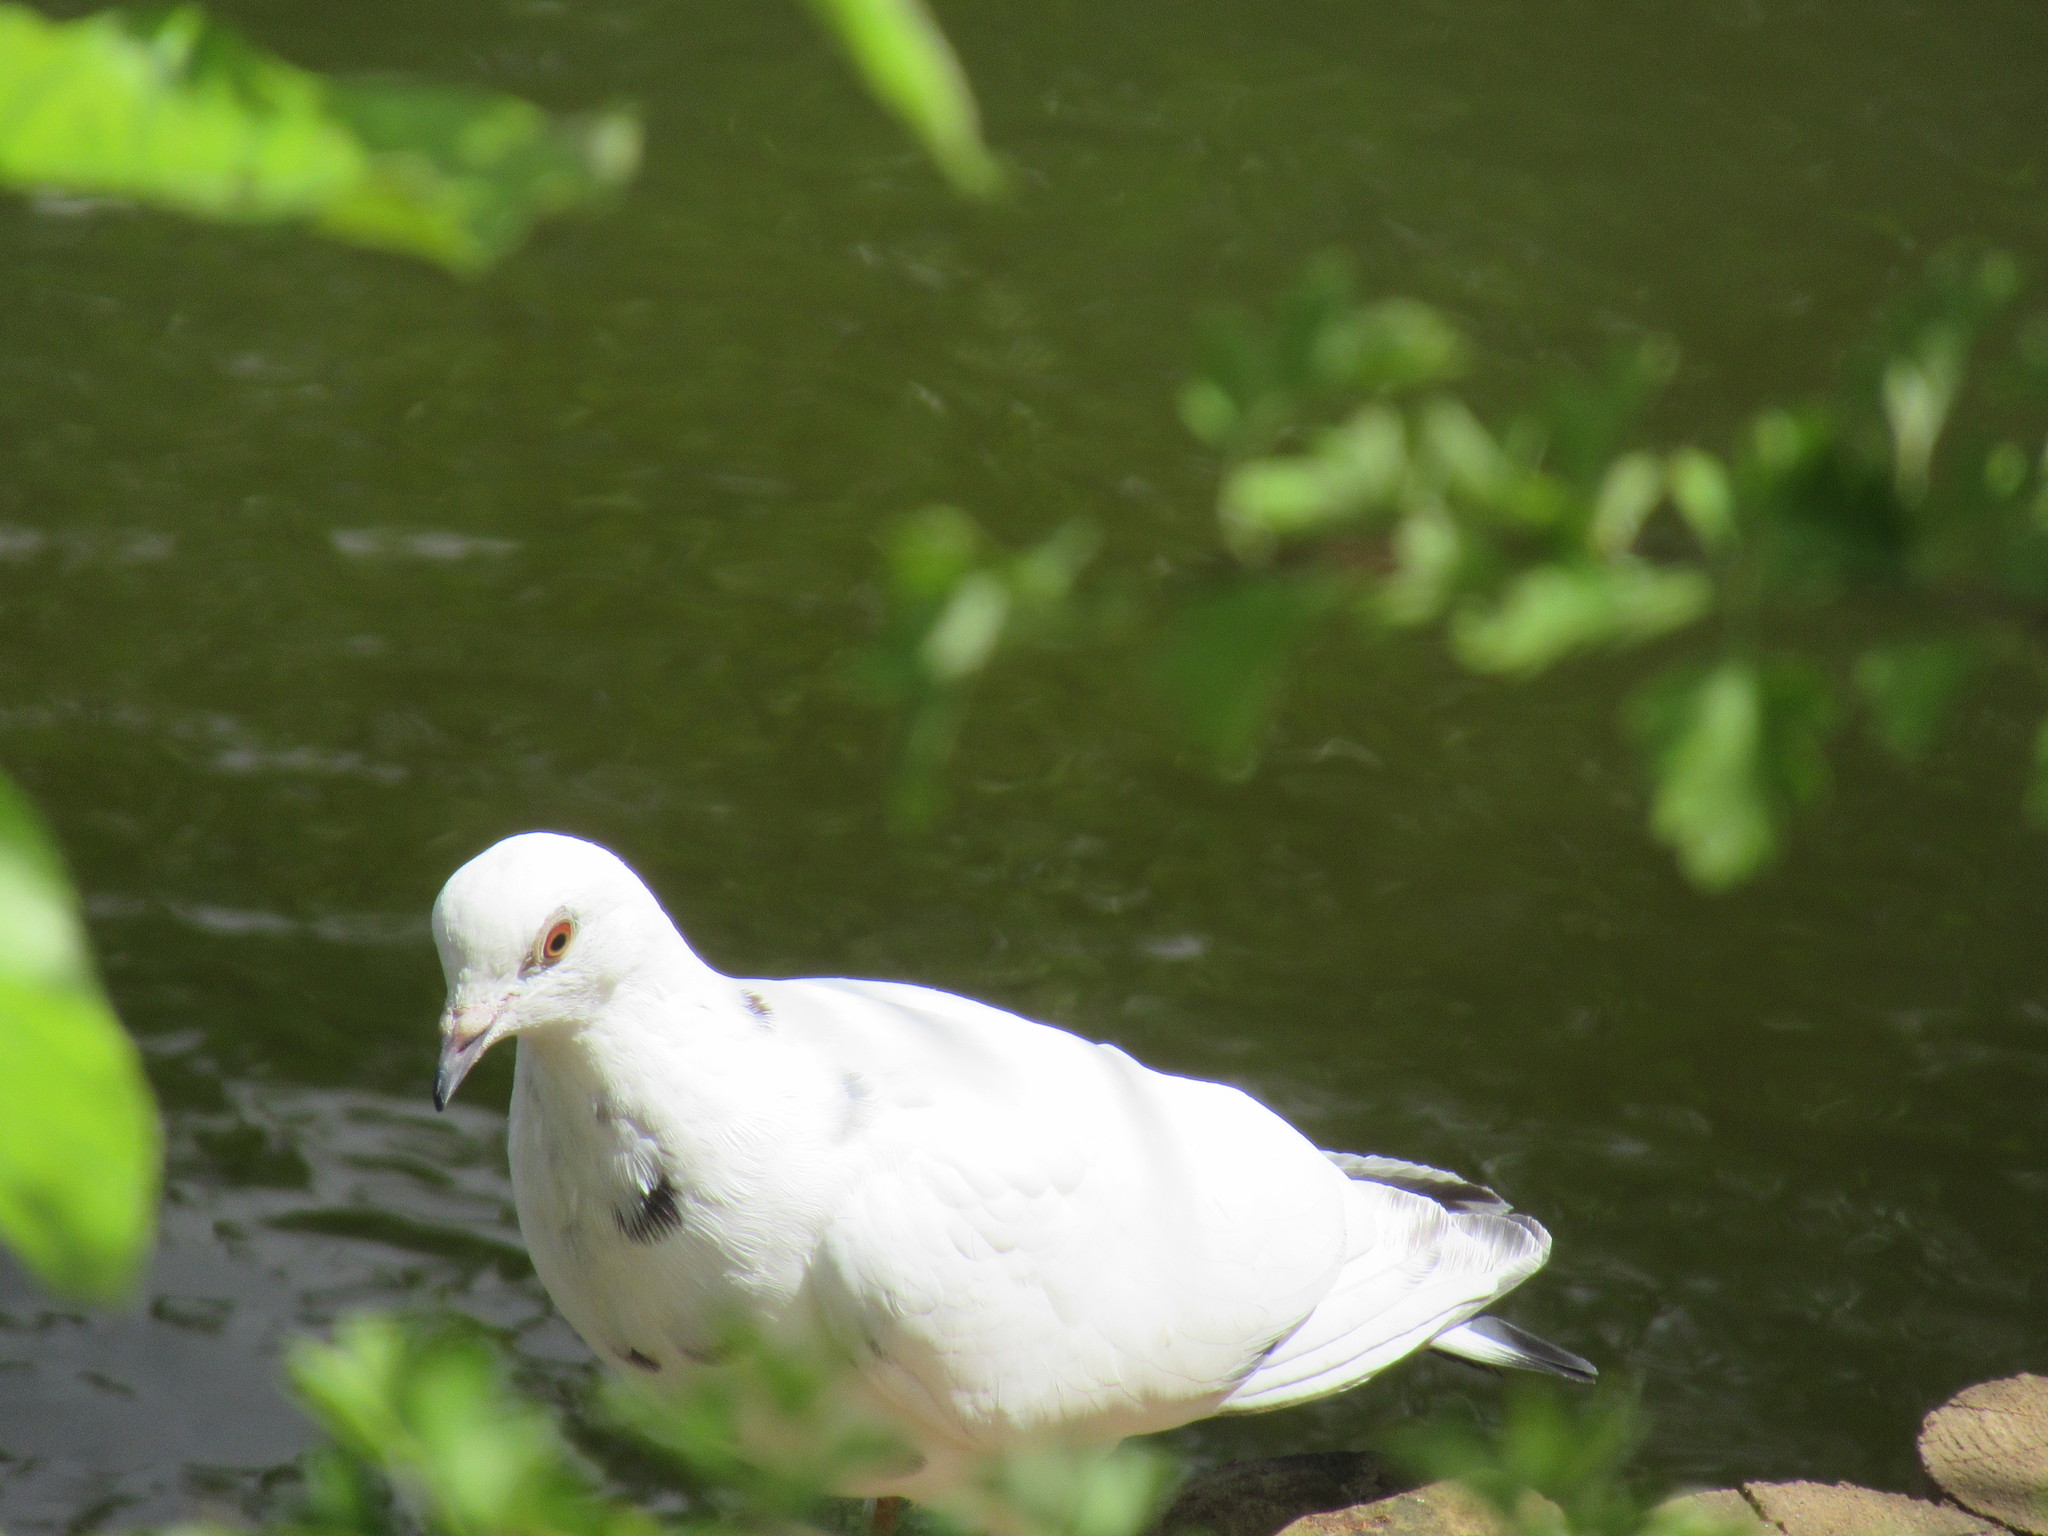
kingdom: Animalia
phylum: Chordata
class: Aves
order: Columbiformes
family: Columbidae
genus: Columba
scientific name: Columba livia
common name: Rock pigeon
